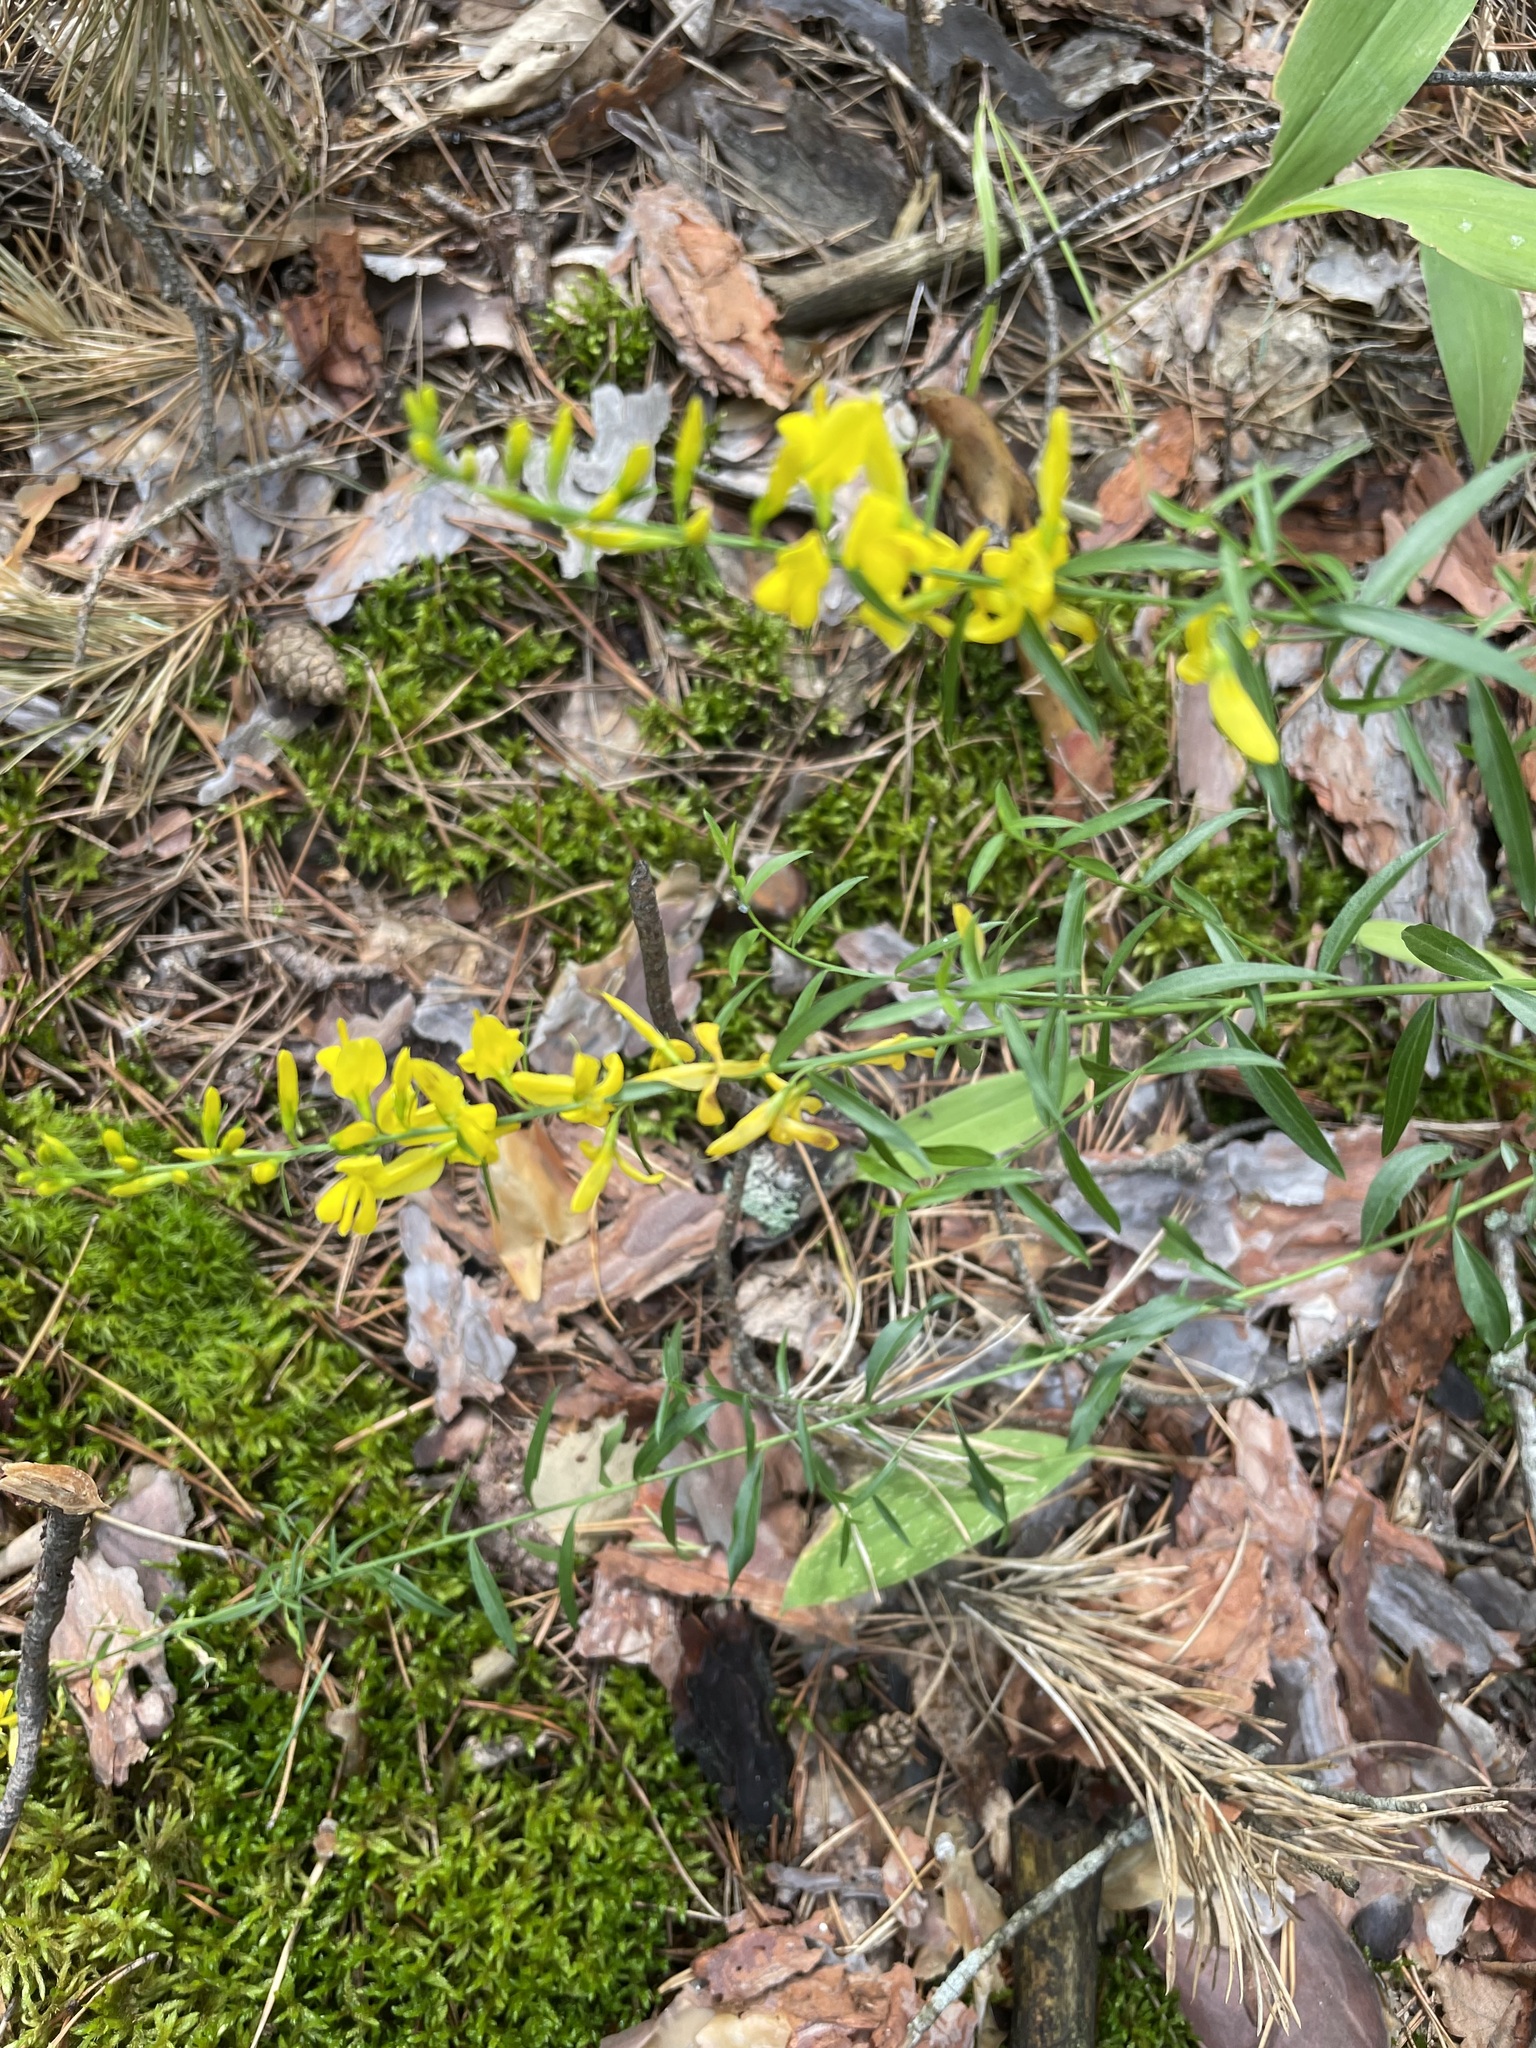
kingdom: Plantae
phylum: Tracheophyta
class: Magnoliopsida
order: Fabales
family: Fabaceae
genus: Genista
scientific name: Genista tinctoria
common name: Dyer's greenweed
